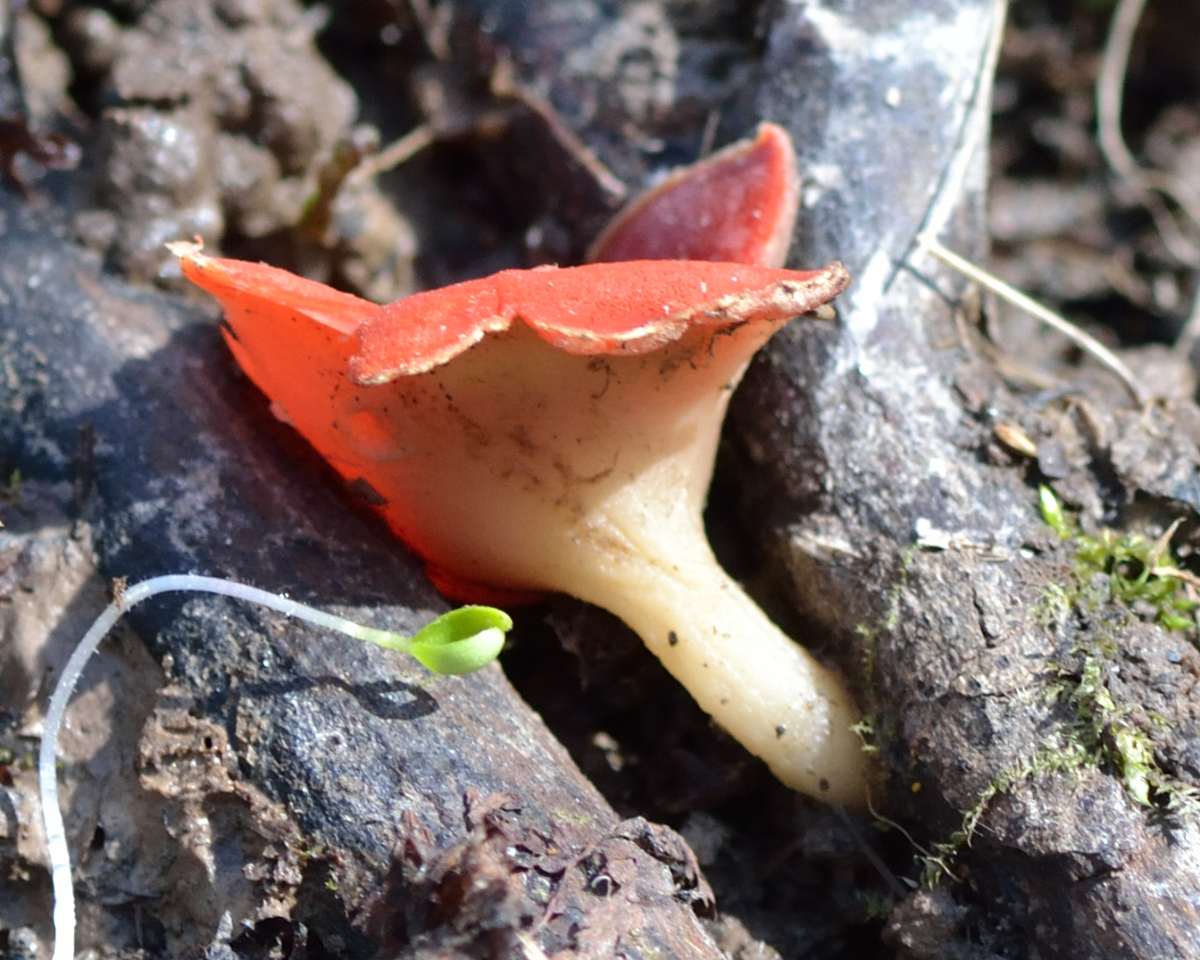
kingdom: Fungi
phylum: Ascomycota
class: Pezizomycetes
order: Pezizales
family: Sarcoscyphaceae
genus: Sarcoscypha
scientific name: Sarcoscypha austriaca
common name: Scarlet elfcup
